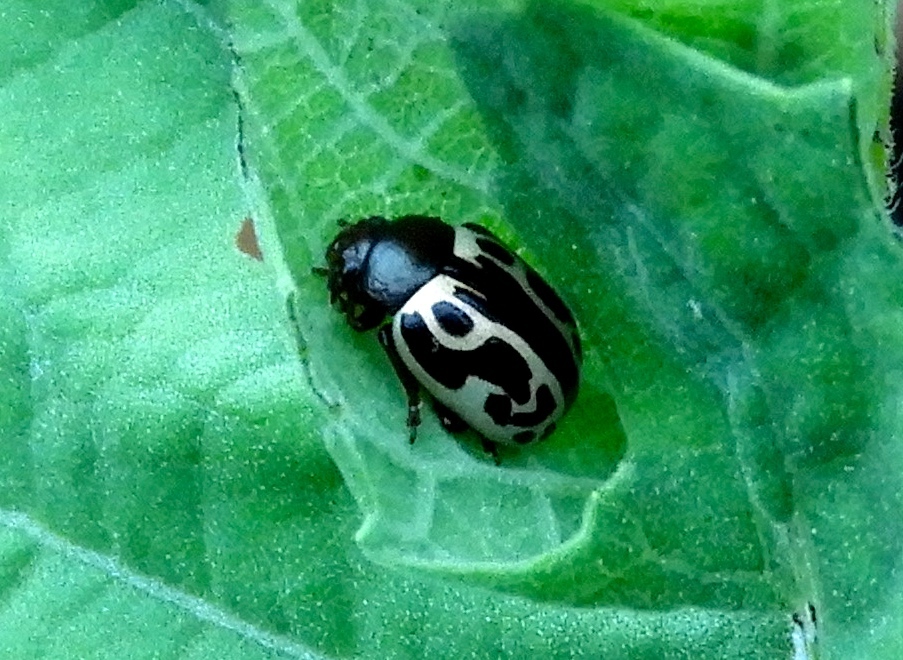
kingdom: Animalia
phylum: Arthropoda
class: Insecta
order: Coleoptera
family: Chrysomelidae
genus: Zygogramma
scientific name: Zygogramma
